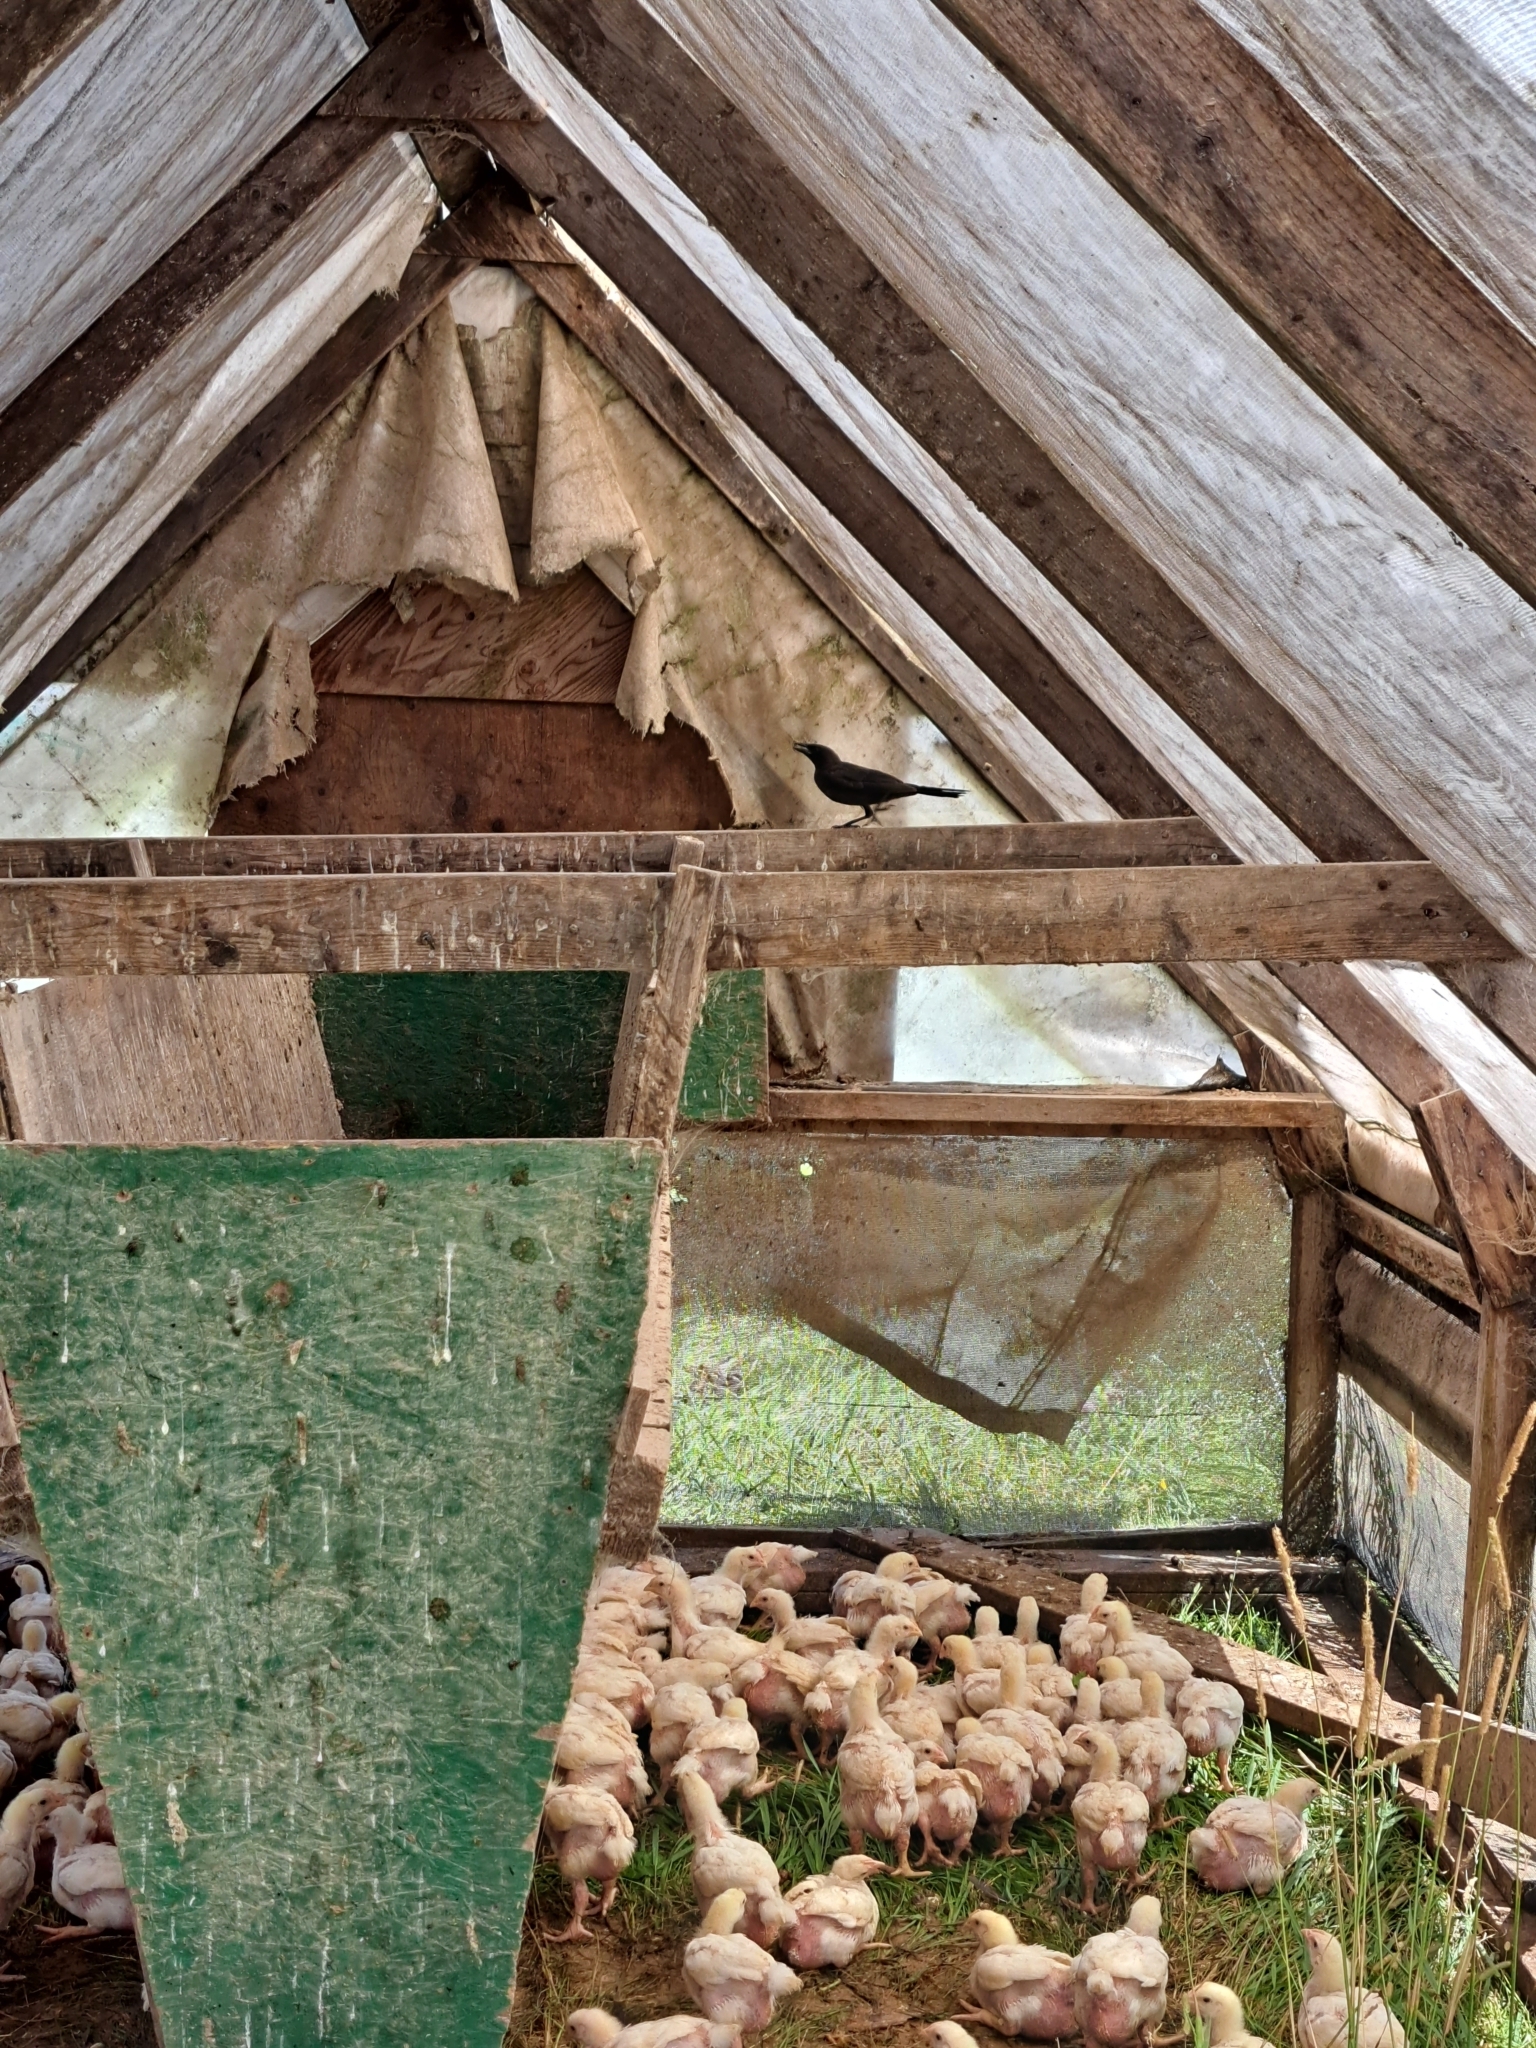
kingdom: Animalia
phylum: Chordata
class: Aves
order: Passeriformes
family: Icteridae
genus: Quiscalus
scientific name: Quiscalus quiscula
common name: Common grackle
